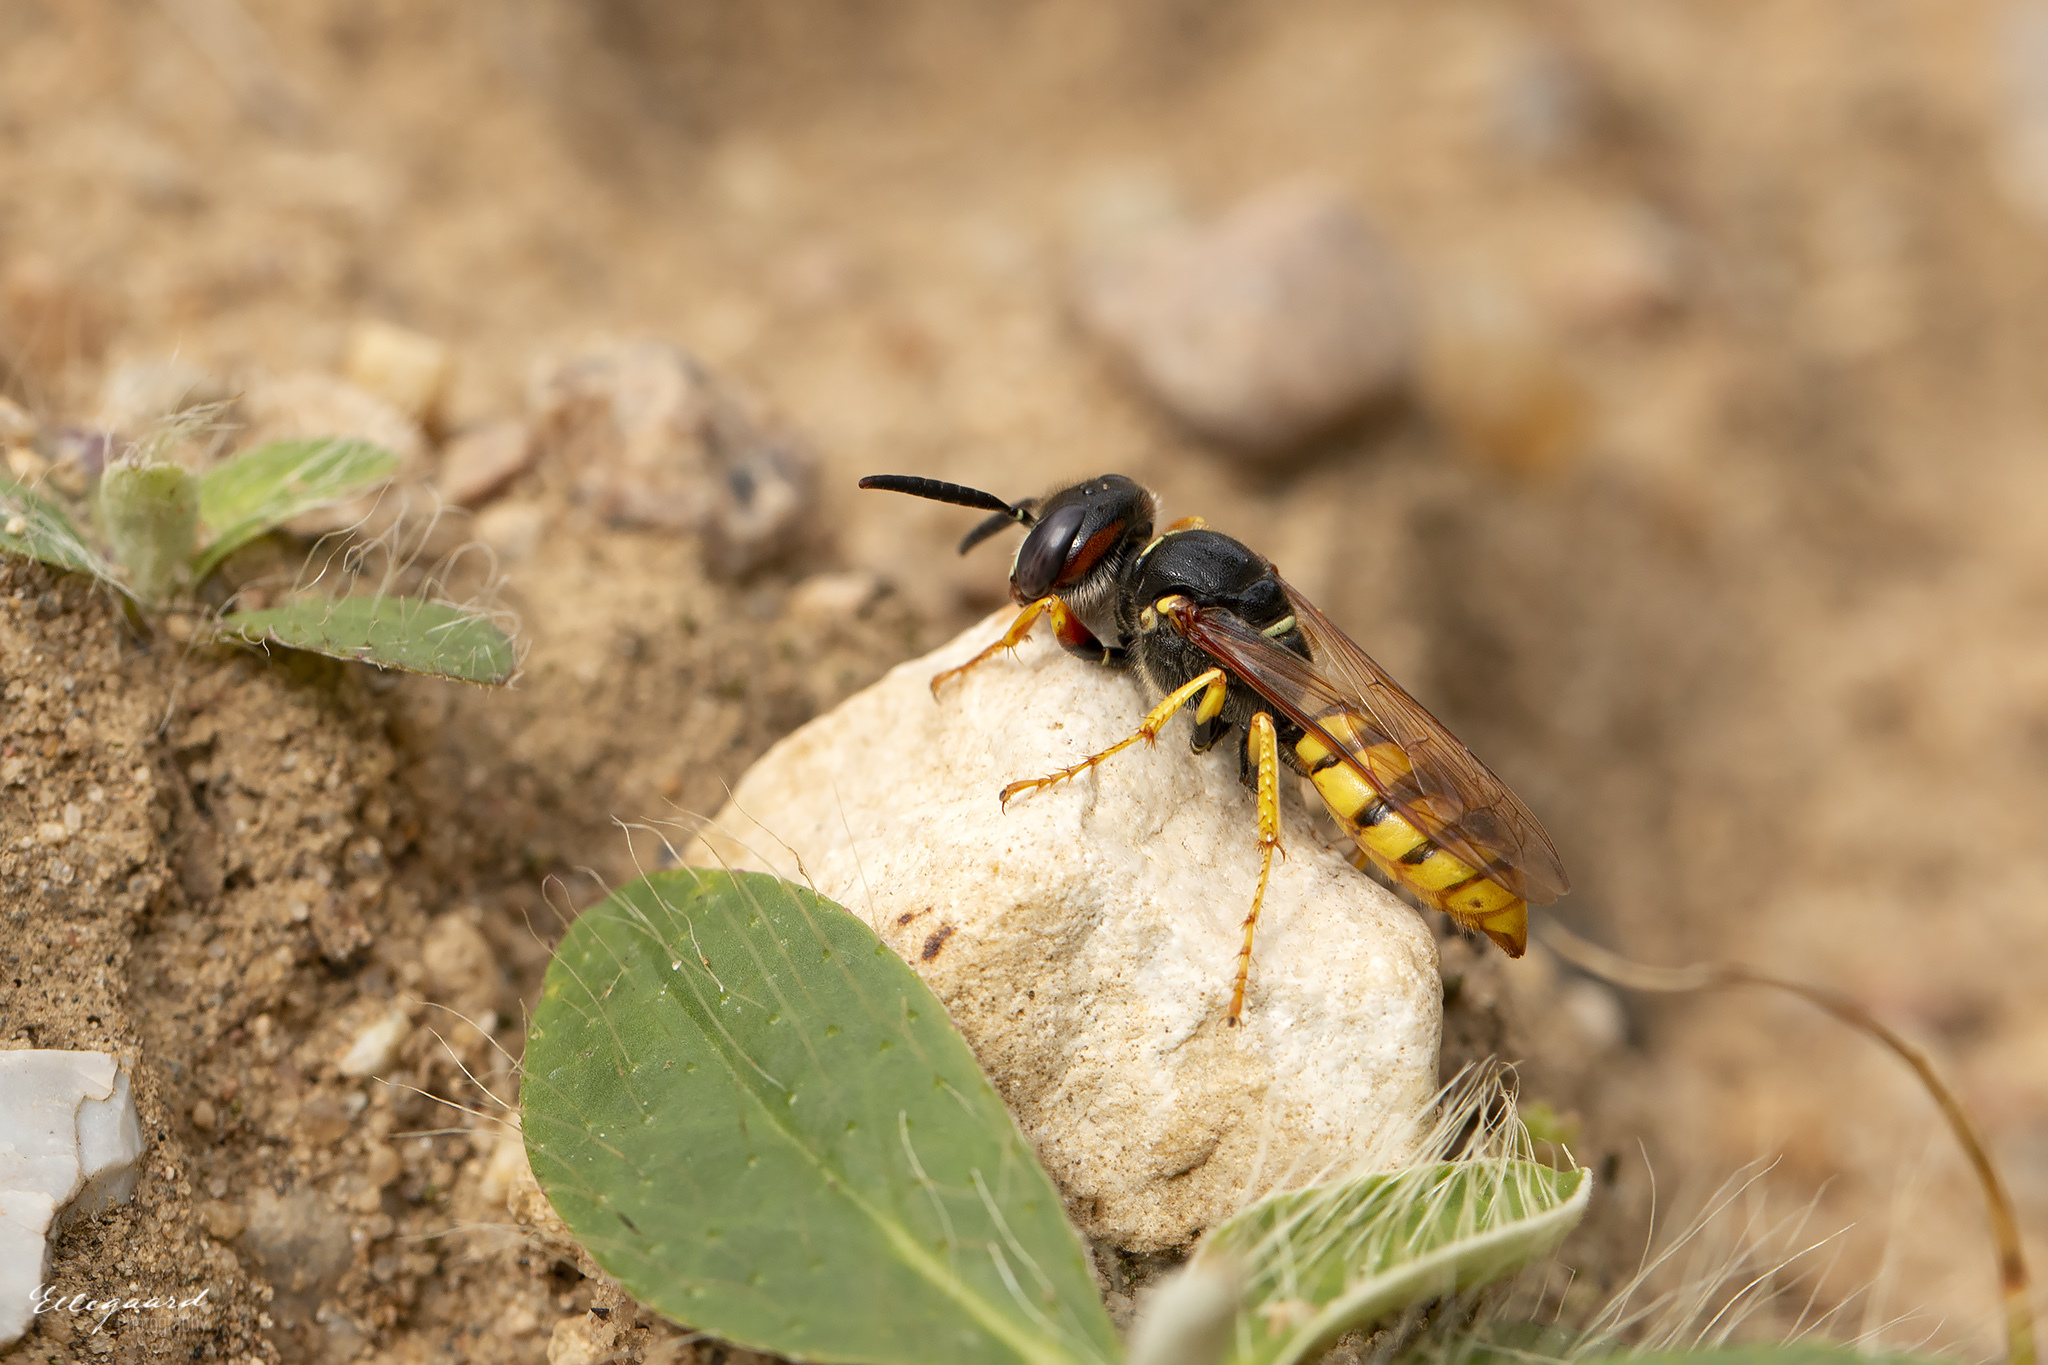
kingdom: Animalia
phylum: Arthropoda
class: Insecta
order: Hymenoptera
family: Crabronidae
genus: Philanthus
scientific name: Philanthus triangulum
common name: Bee wolf
